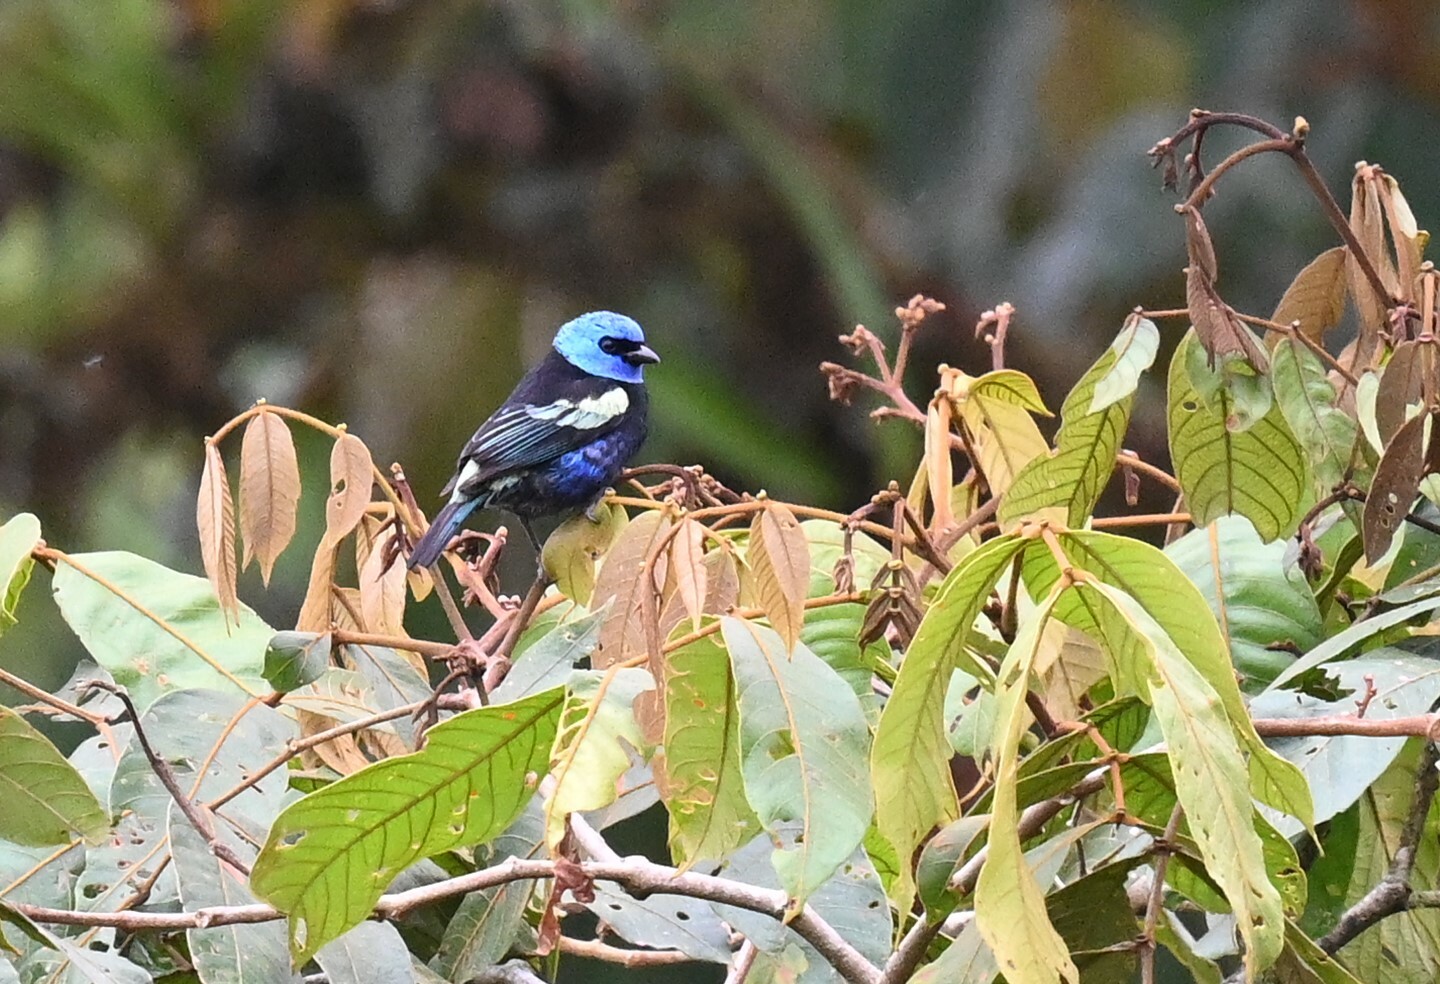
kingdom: Animalia
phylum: Chordata
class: Aves
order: Passeriformes
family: Thraupidae
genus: Stilpnia
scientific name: Stilpnia cyanicollis
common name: Blue-necked tanager
